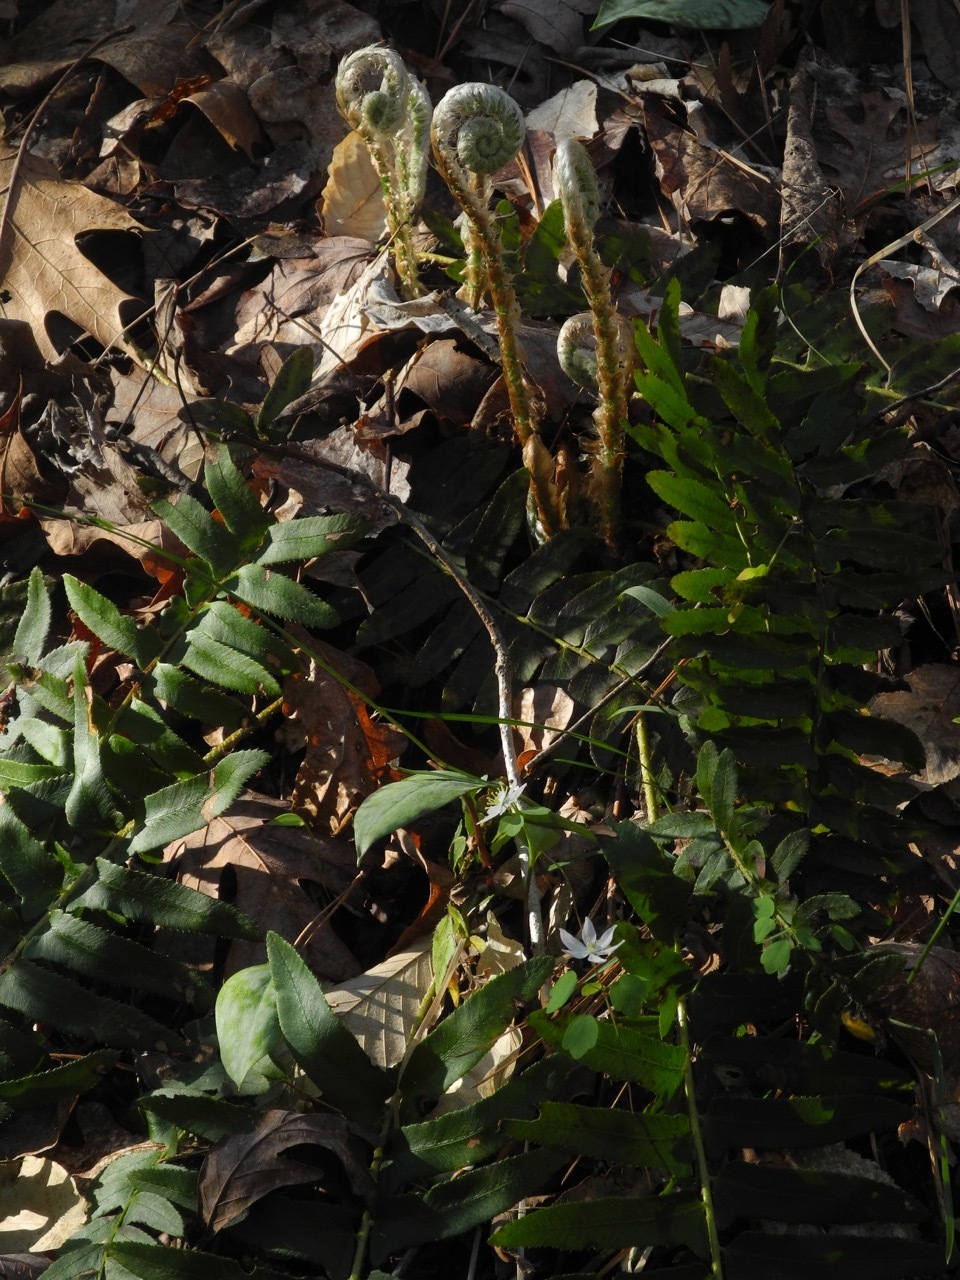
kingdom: Plantae
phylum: Tracheophyta
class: Polypodiopsida
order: Polypodiales
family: Dryopteridaceae
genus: Polystichum
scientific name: Polystichum acrostichoides
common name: Christmas fern
